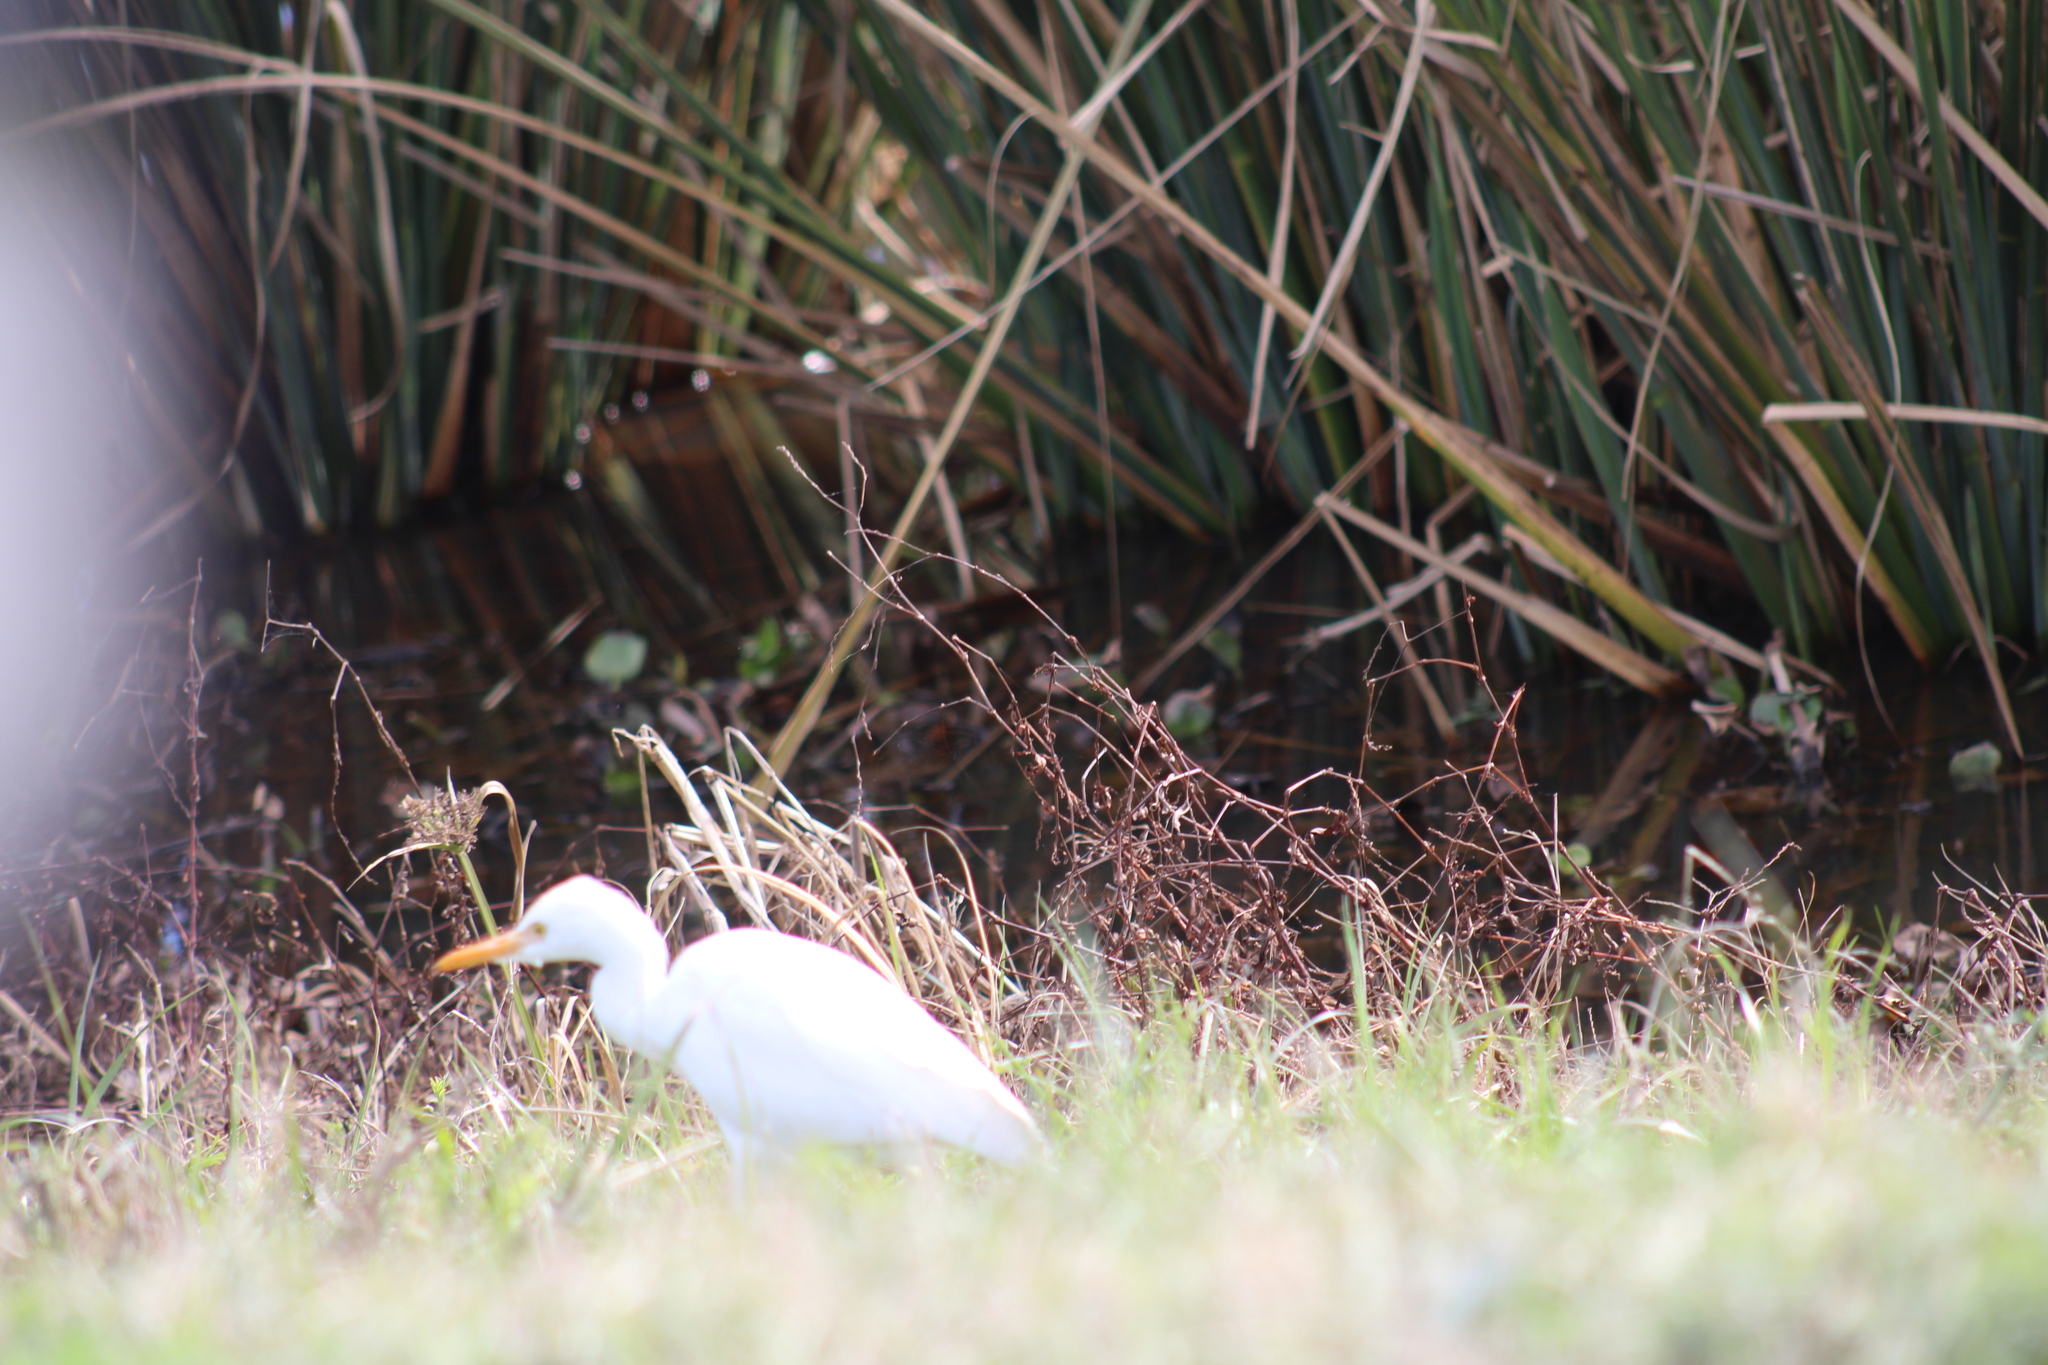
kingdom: Animalia
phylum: Chordata
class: Aves
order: Pelecaniformes
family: Ardeidae
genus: Bubulcus
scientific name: Bubulcus ibis
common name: Cattle egret
